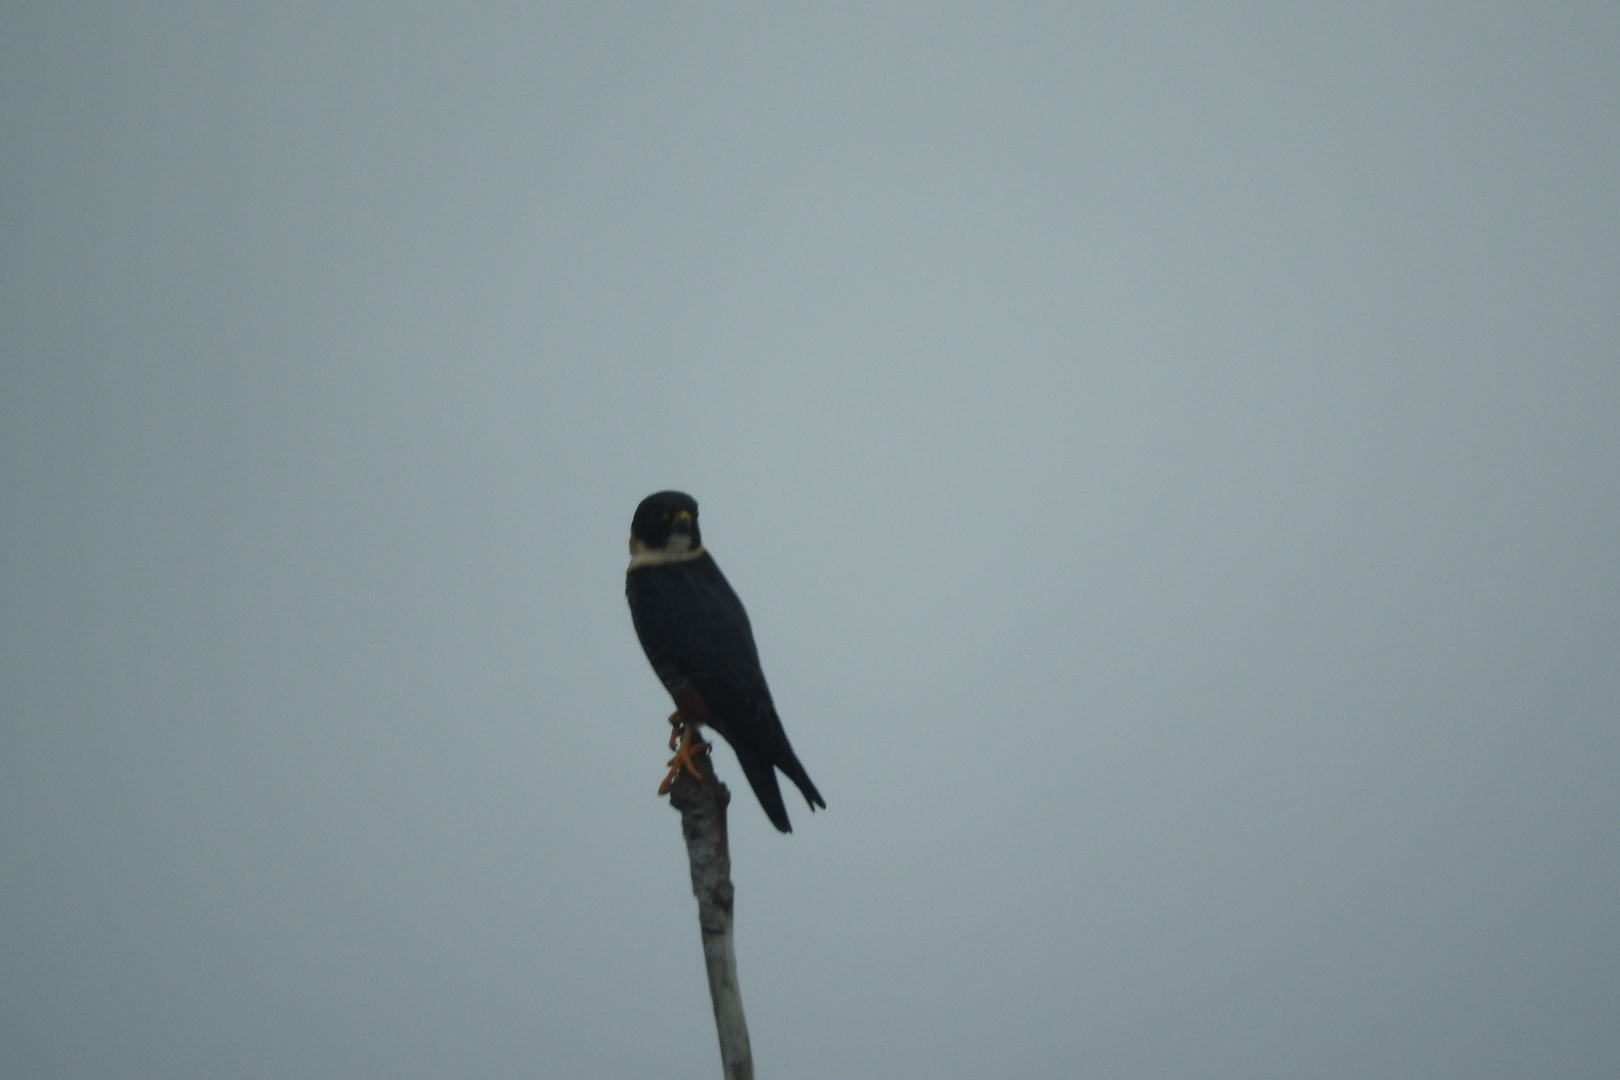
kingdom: Animalia
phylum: Chordata
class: Aves
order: Falconiformes
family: Falconidae
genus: Falco
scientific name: Falco rufigularis
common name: Bat falcon
